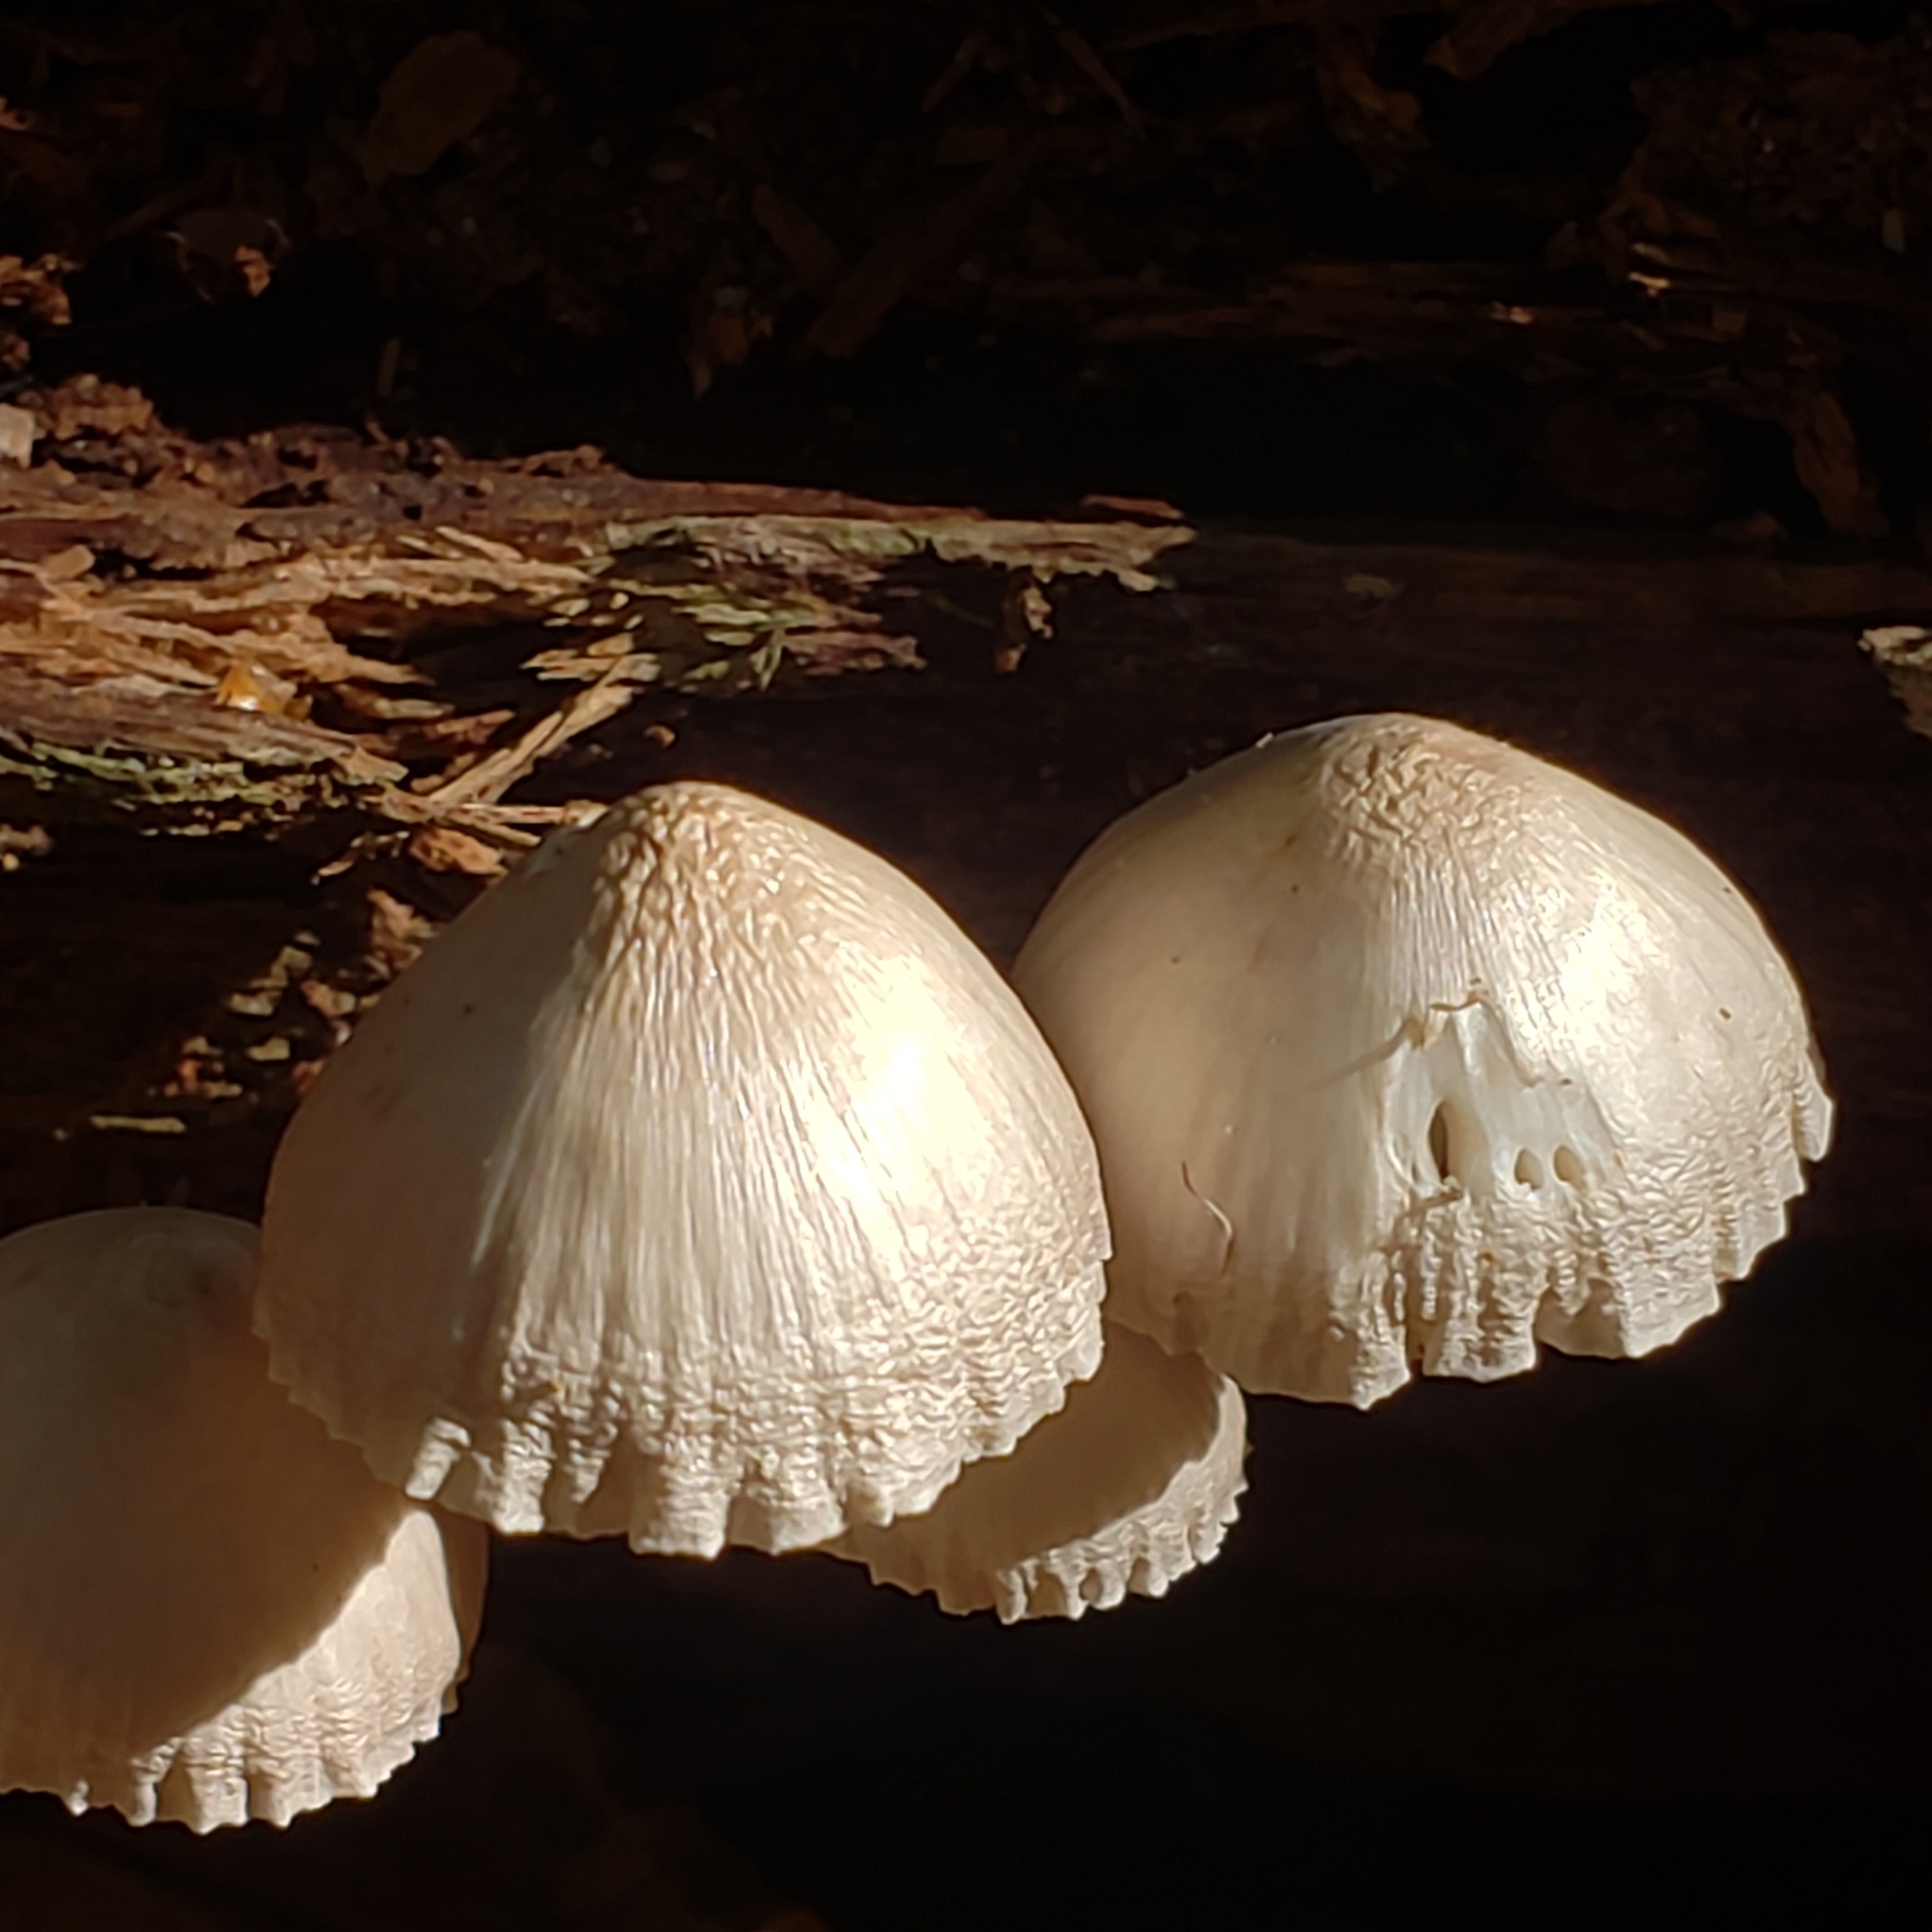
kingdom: Fungi
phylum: Basidiomycota
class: Agaricomycetes
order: Agaricales
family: Mycenaceae
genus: Mycena
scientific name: Mycena galericulata
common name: Bonnet mycena
